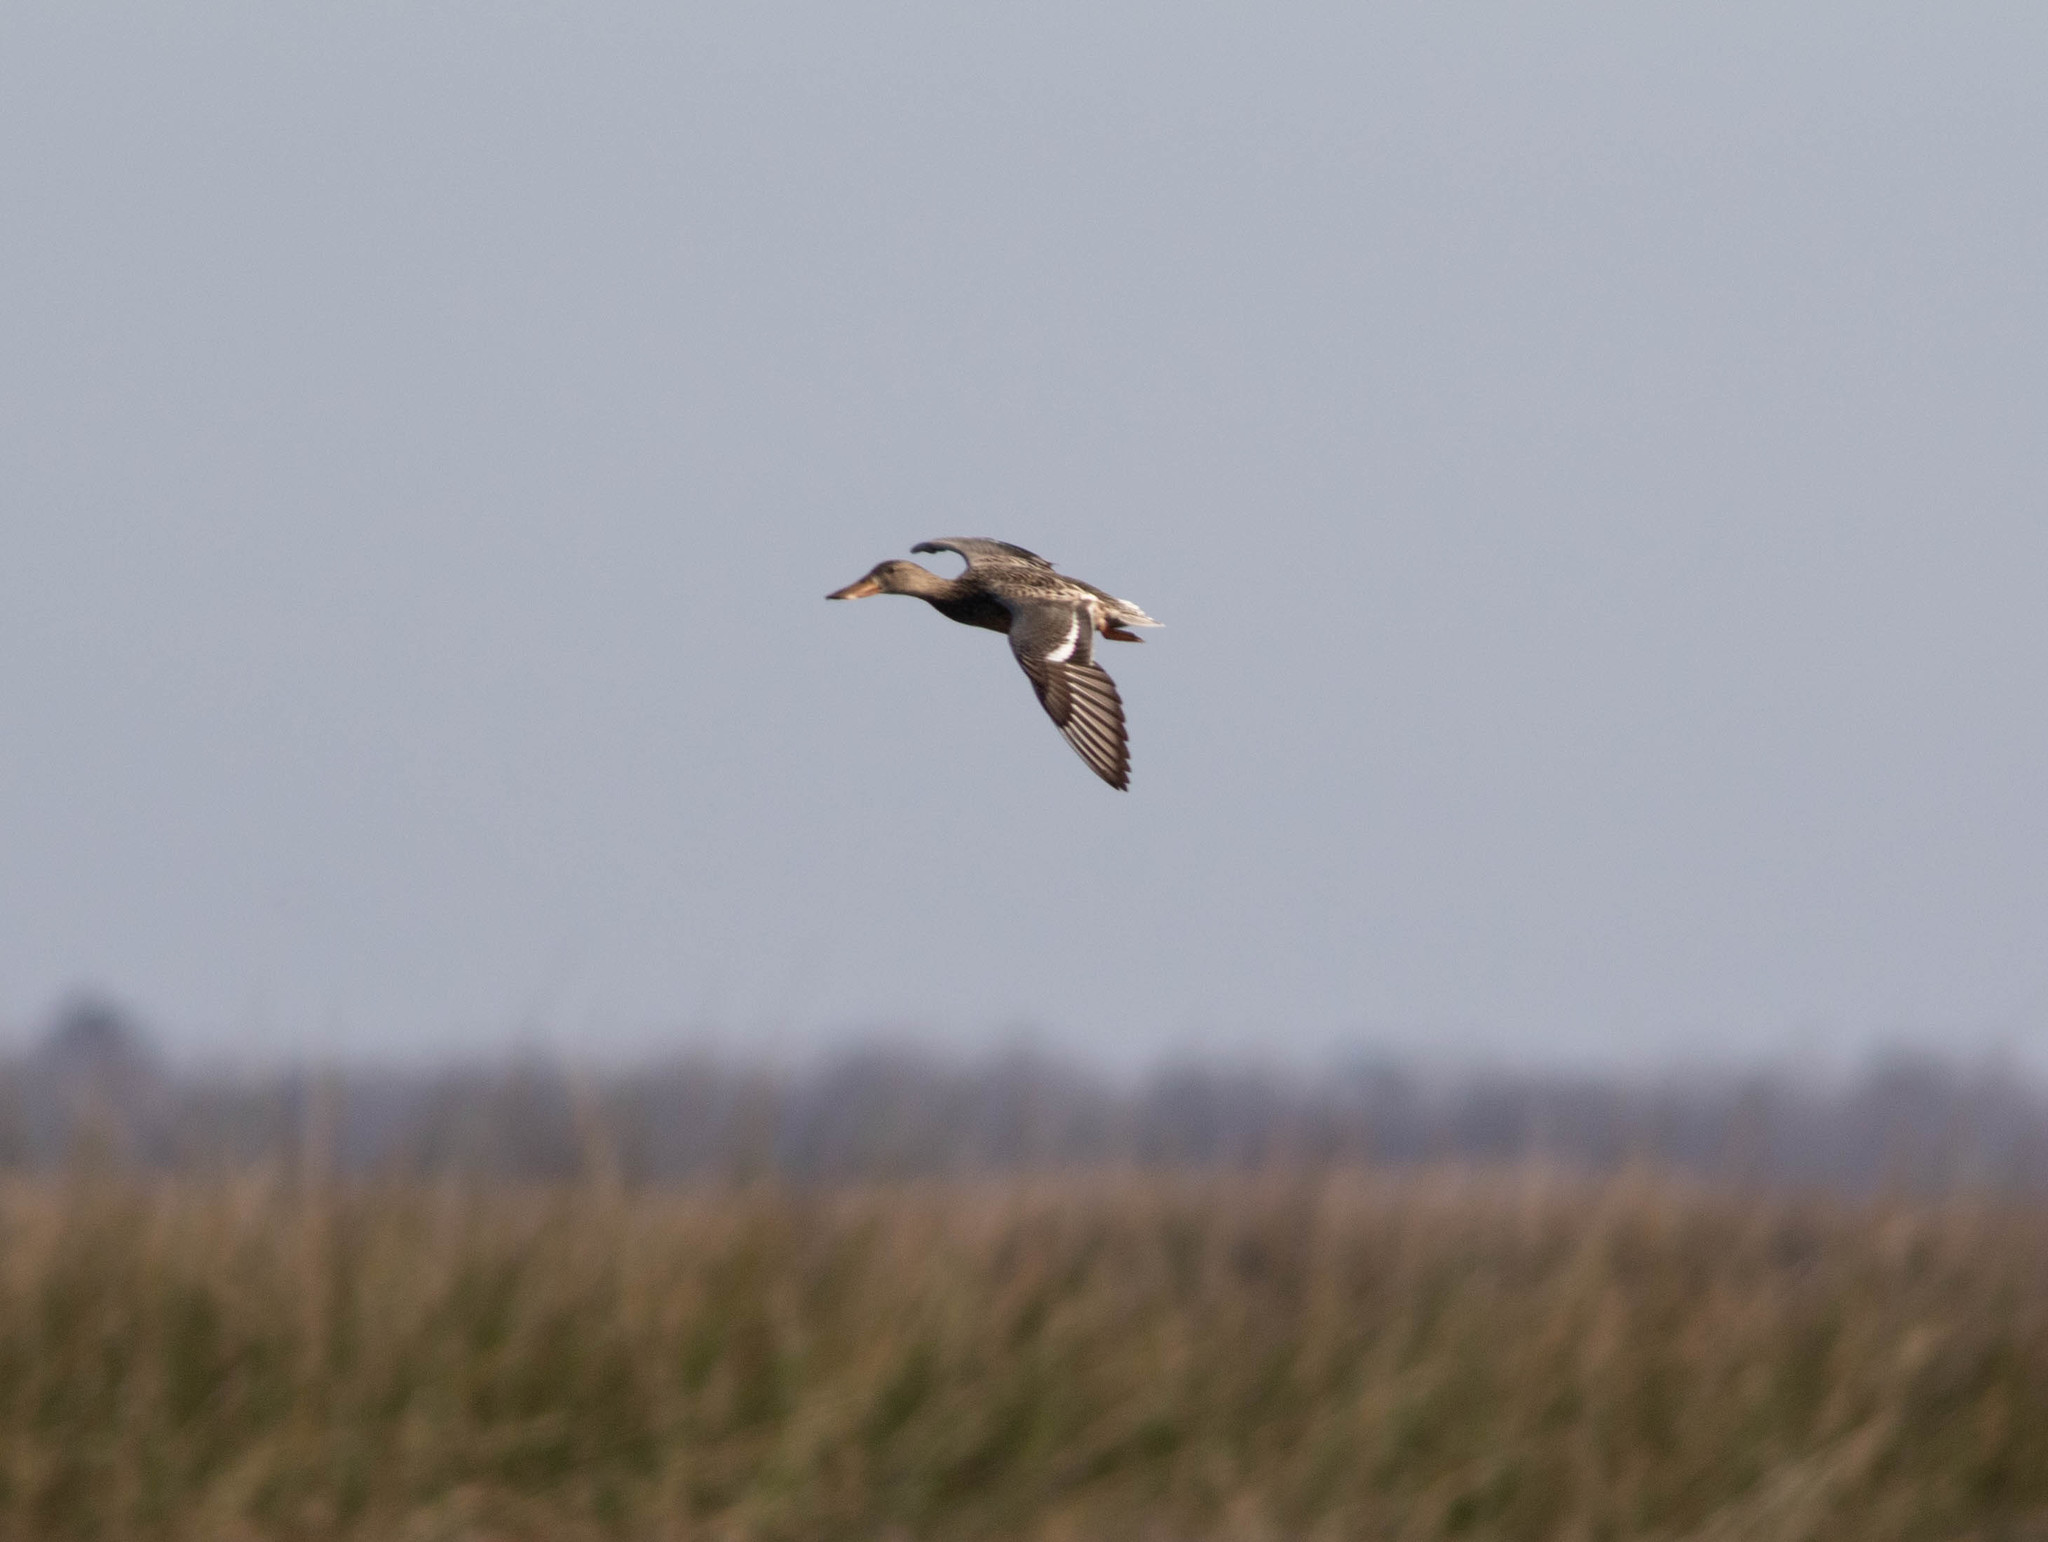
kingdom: Animalia
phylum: Chordata
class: Aves
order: Anseriformes
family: Anatidae
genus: Spatula
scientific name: Spatula clypeata
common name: Northern shoveler
